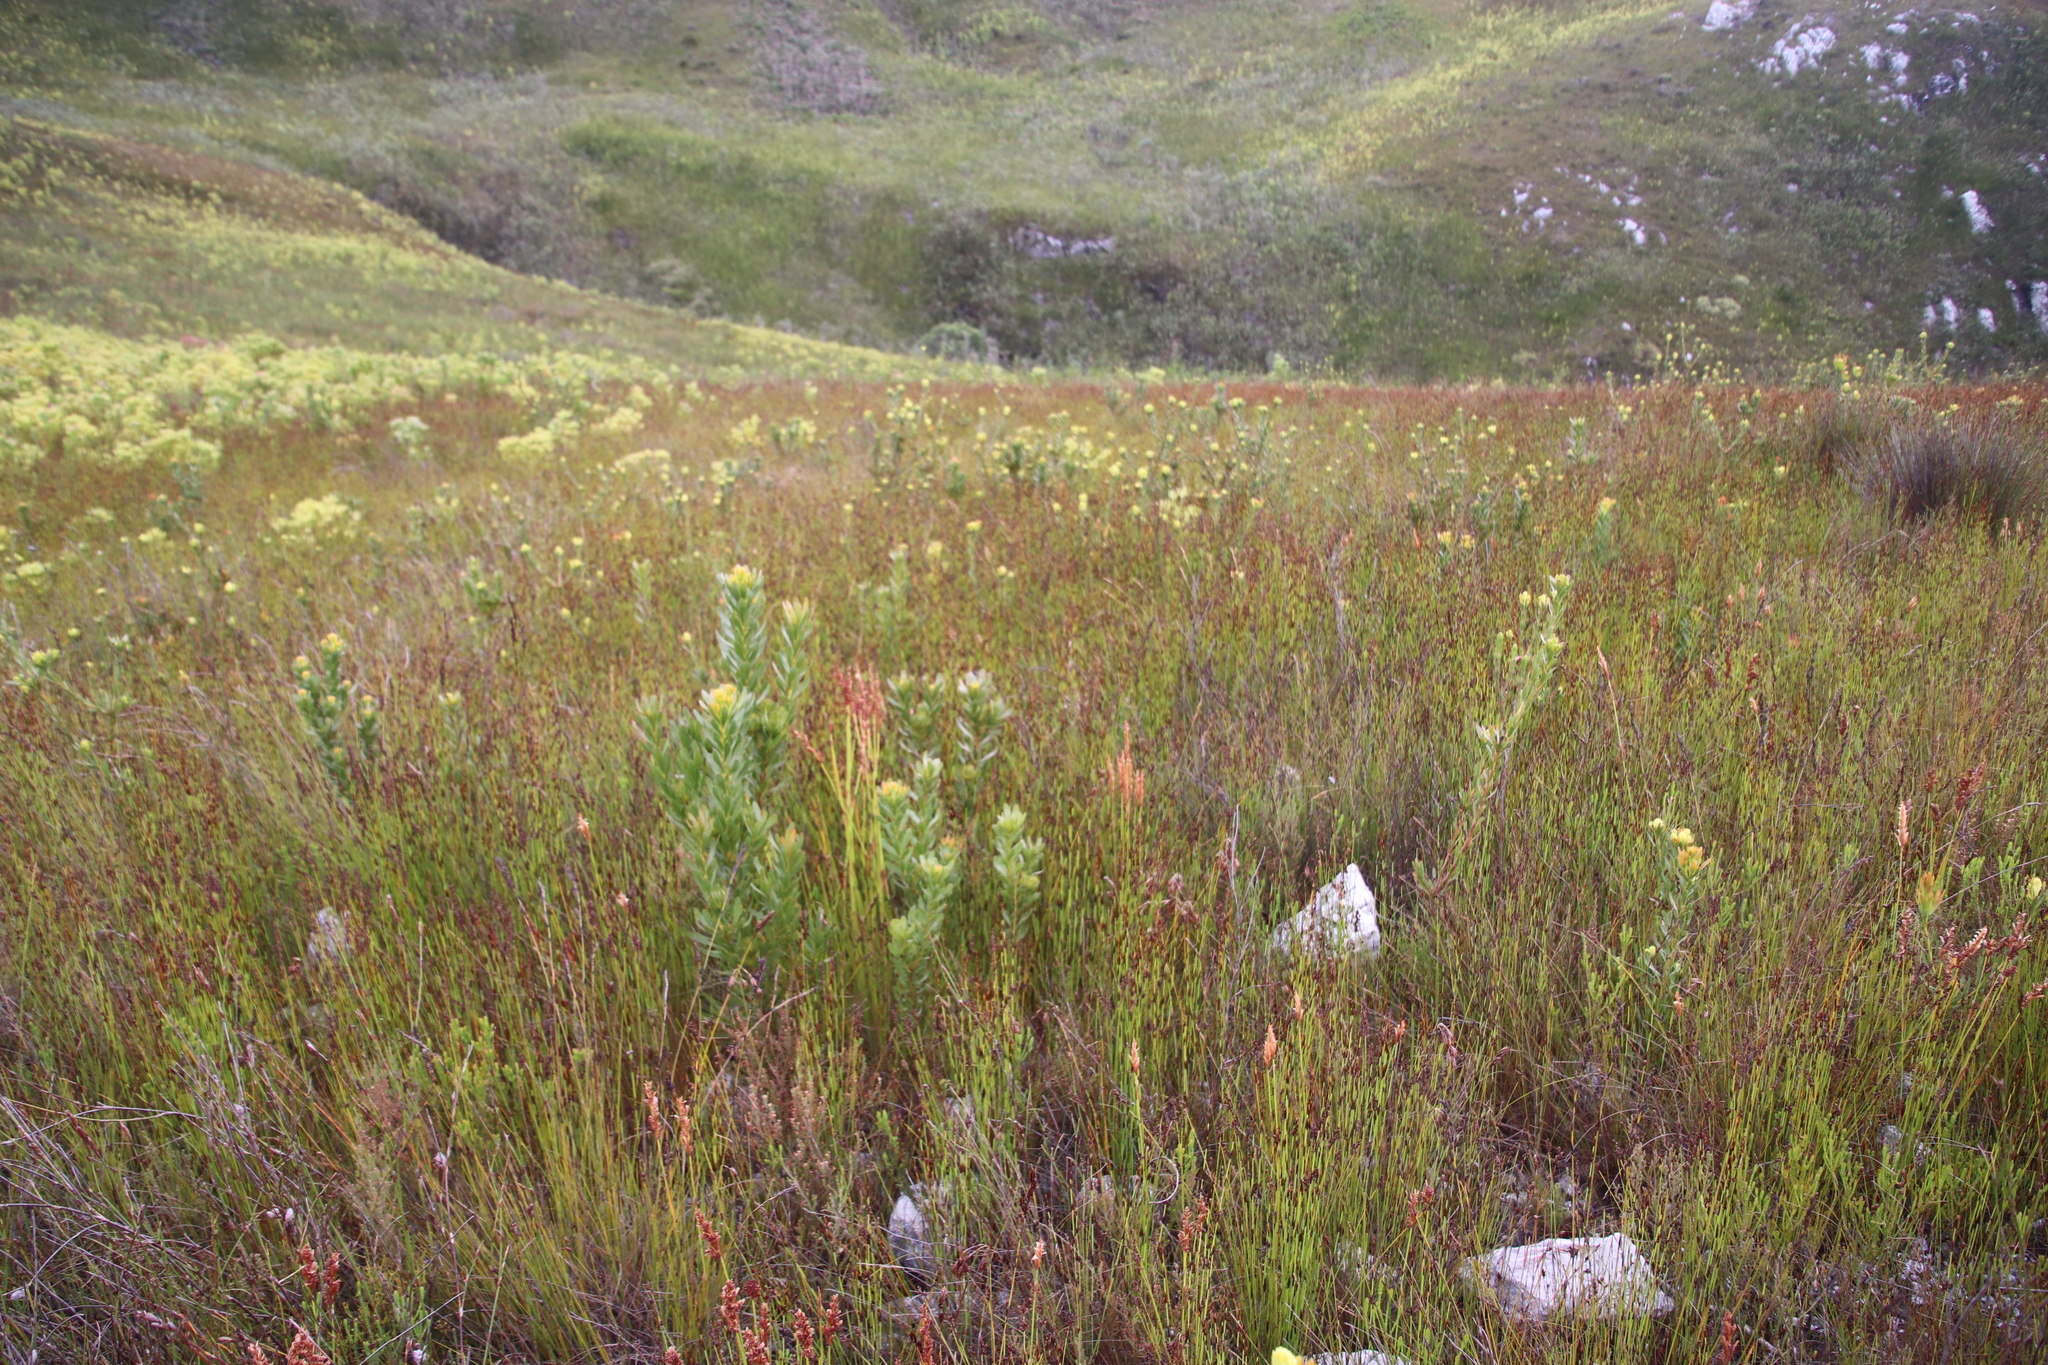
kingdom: Plantae
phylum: Tracheophyta
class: Magnoliopsida
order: Proteales
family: Proteaceae
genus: Aulax
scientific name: Aulax umbellata
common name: Broad-leaf featherbush
